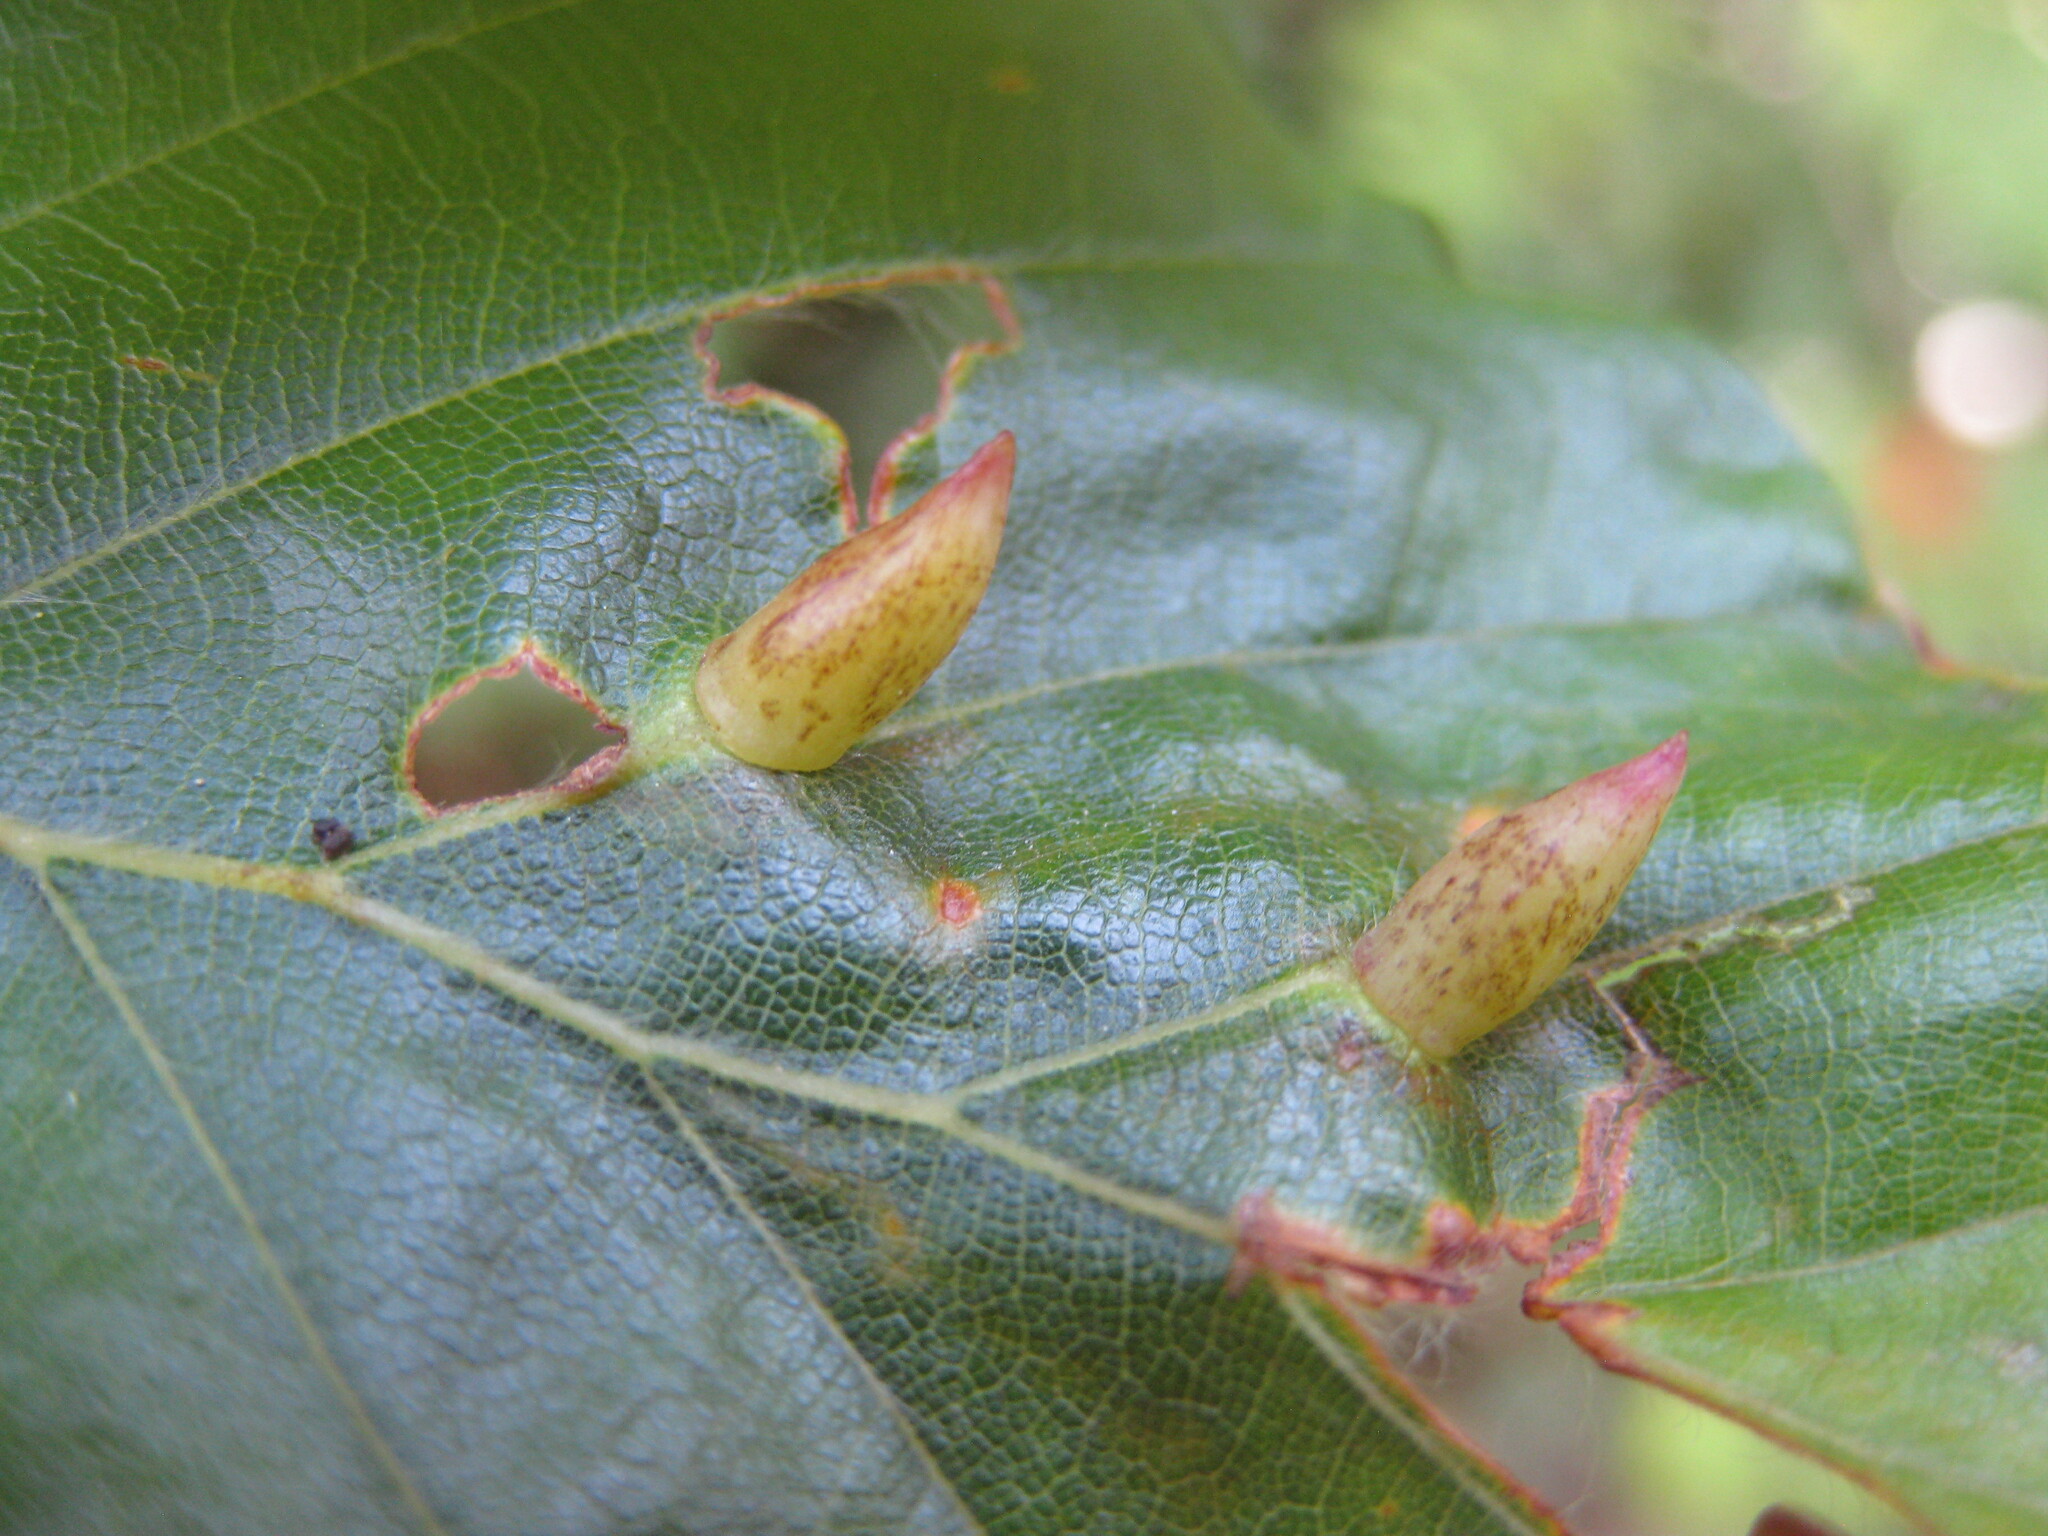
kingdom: Animalia
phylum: Arthropoda
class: Insecta
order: Diptera
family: Cecidomyiidae
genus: Hartigiola
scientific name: Hartigiola annulipes
